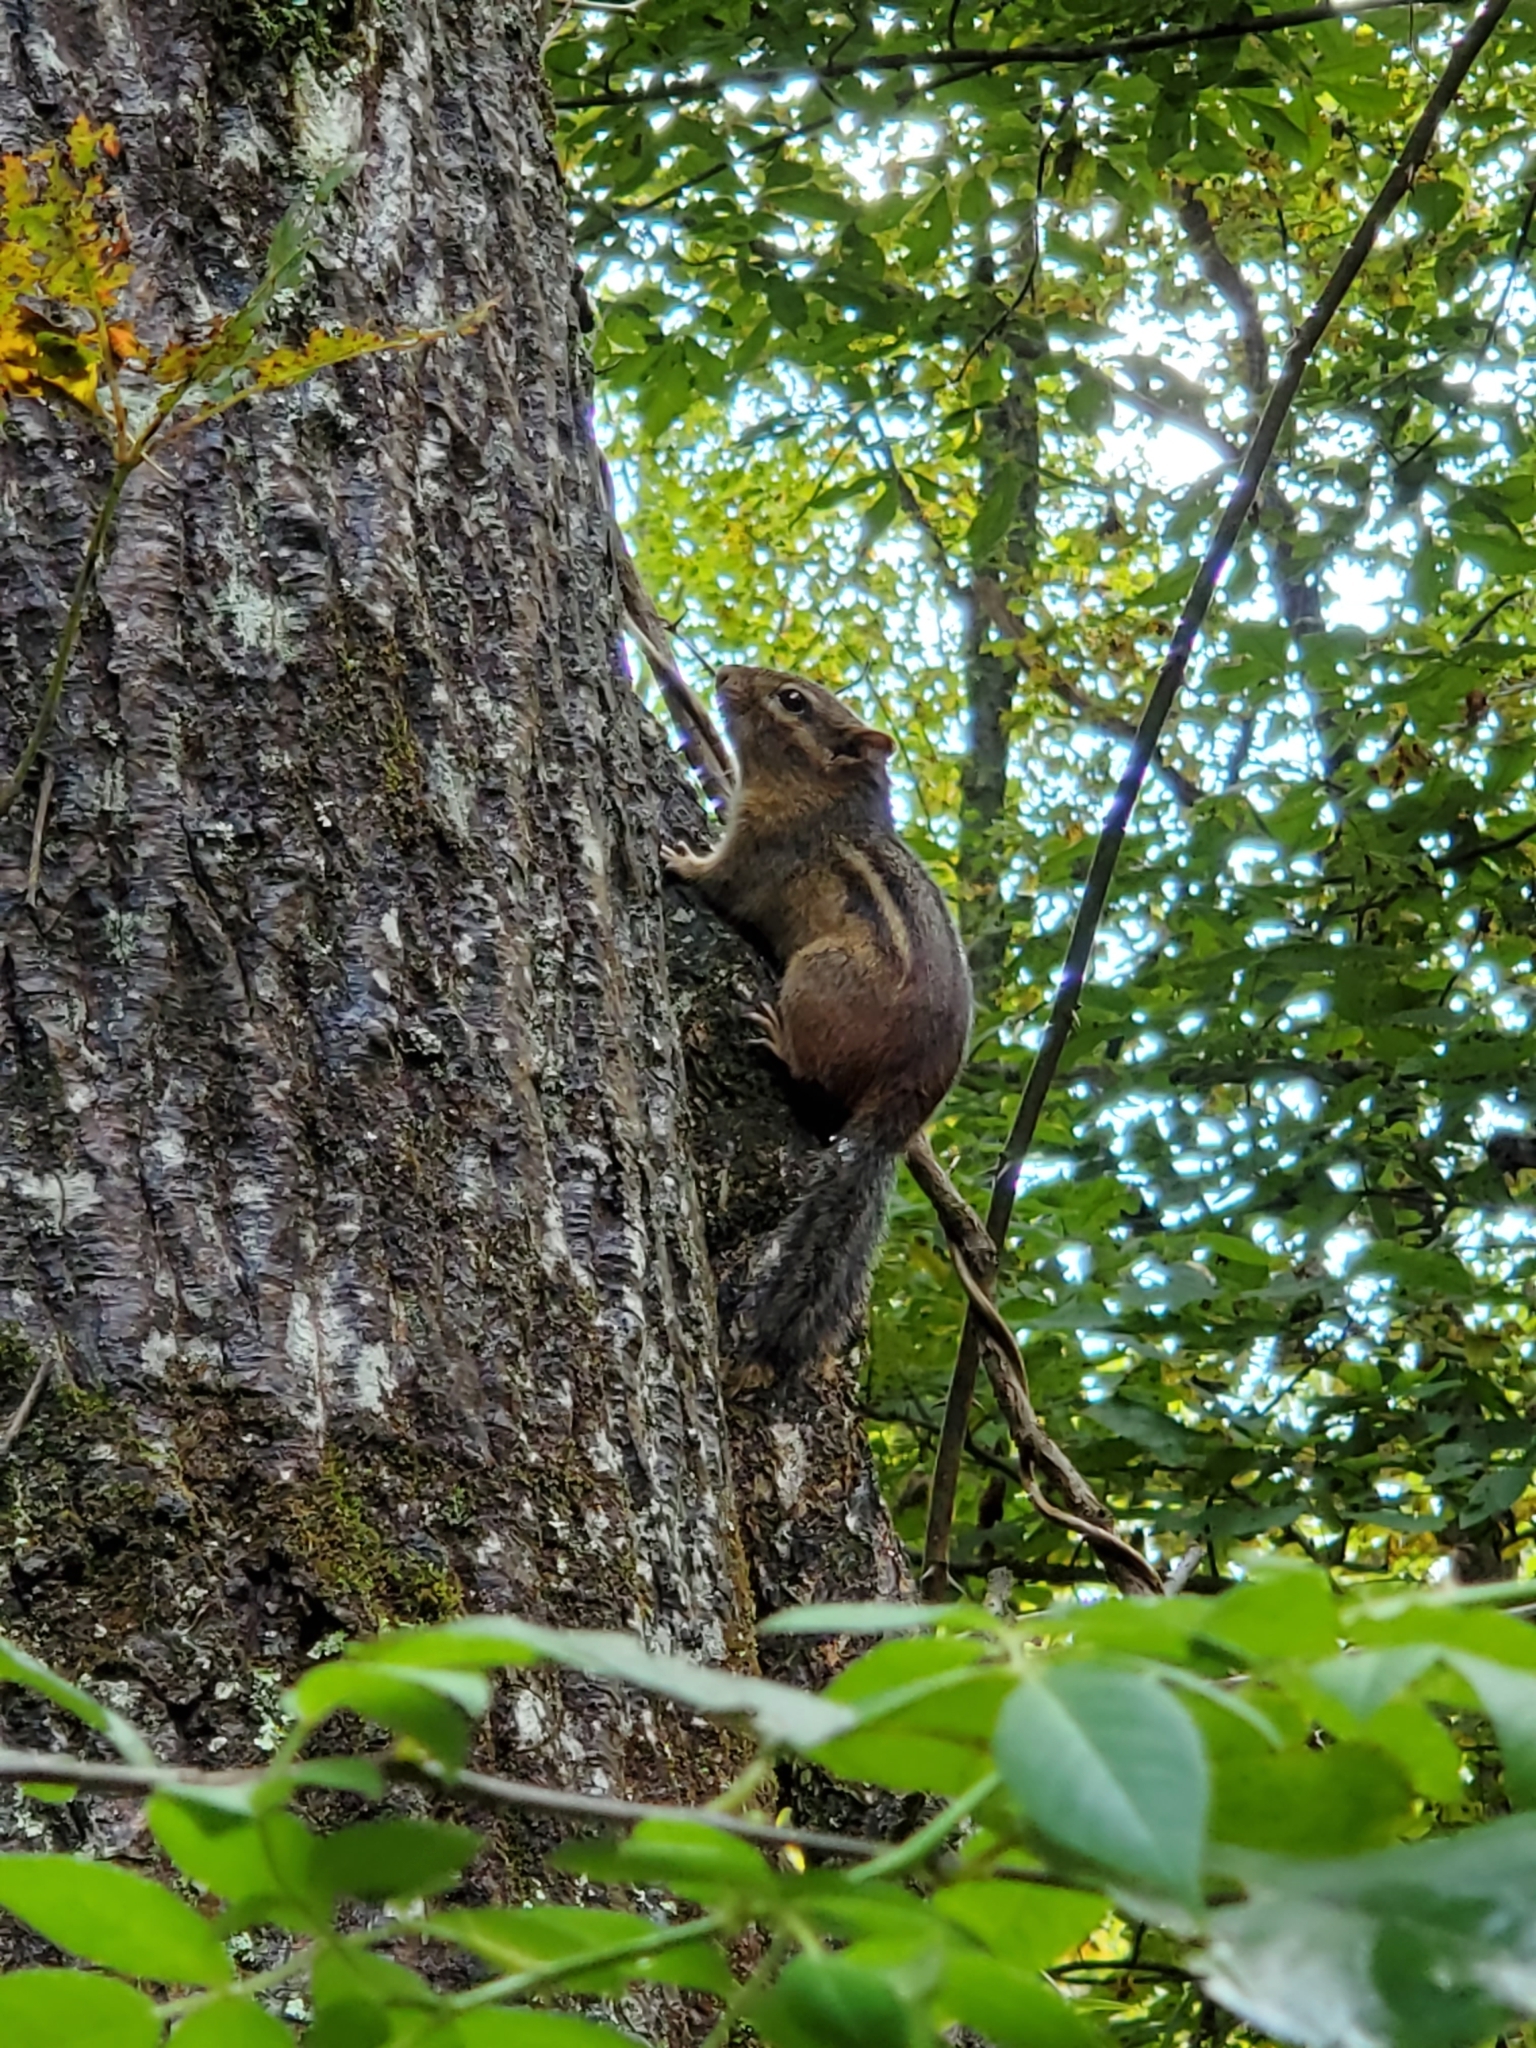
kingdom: Animalia
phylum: Chordata
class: Mammalia
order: Rodentia
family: Sciuridae
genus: Tamias
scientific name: Tamias striatus
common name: Eastern chipmunk
